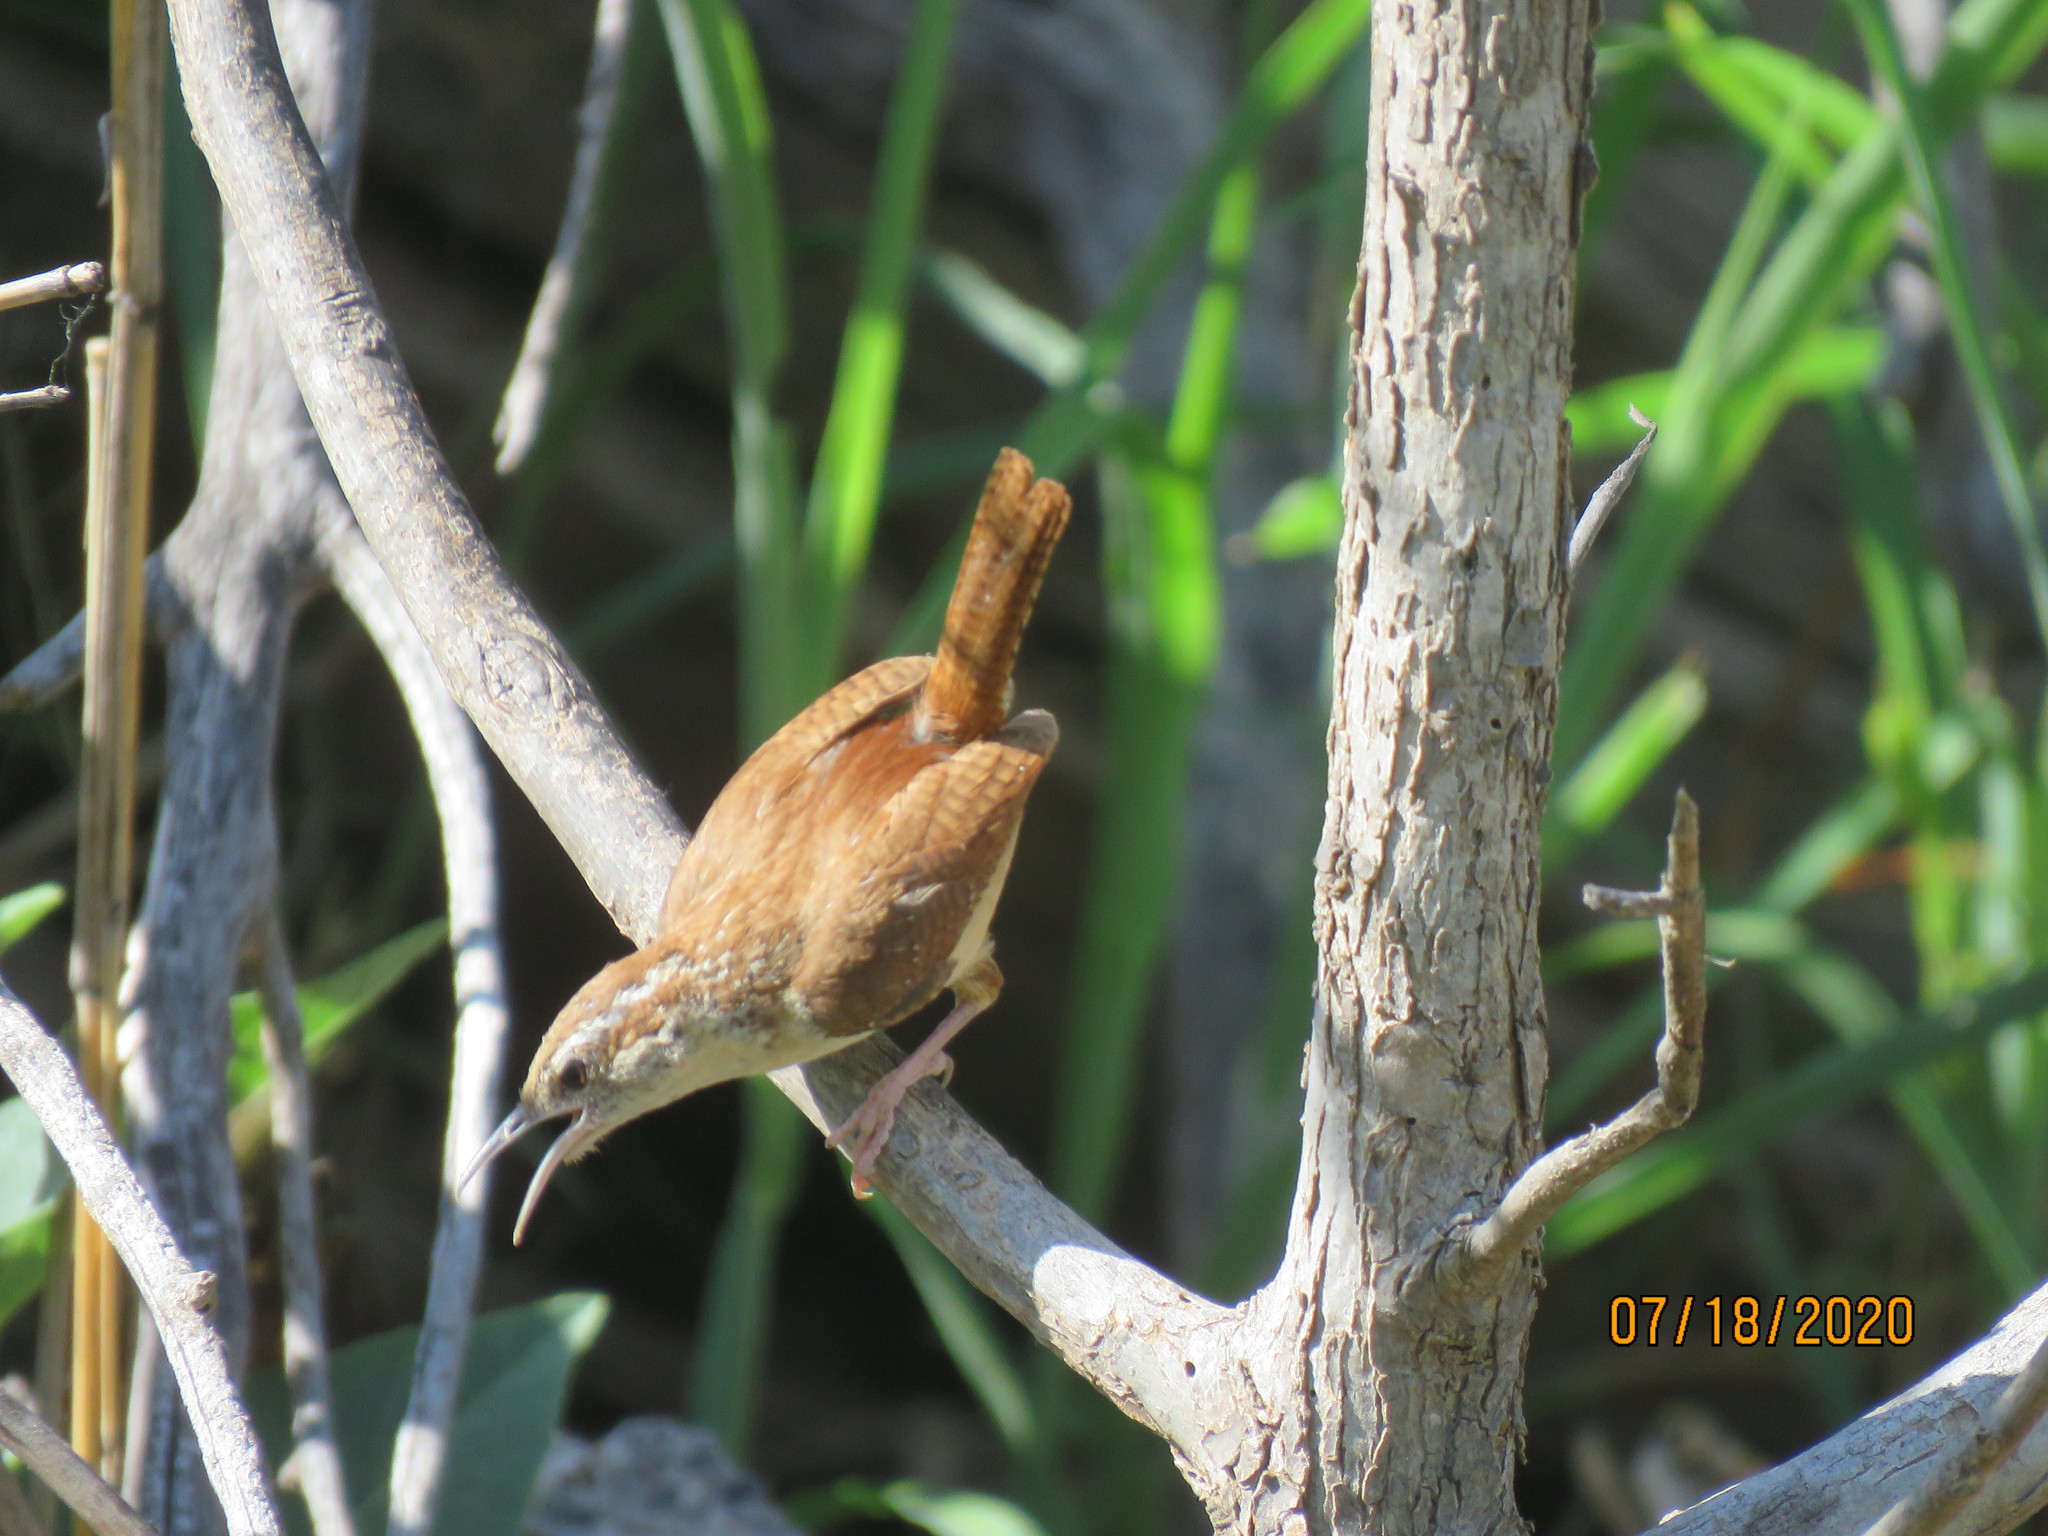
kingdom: Animalia
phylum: Chordata
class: Aves
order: Passeriformes
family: Troglodytidae
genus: Thryothorus
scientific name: Thryothorus ludovicianus
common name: Carolina wren
